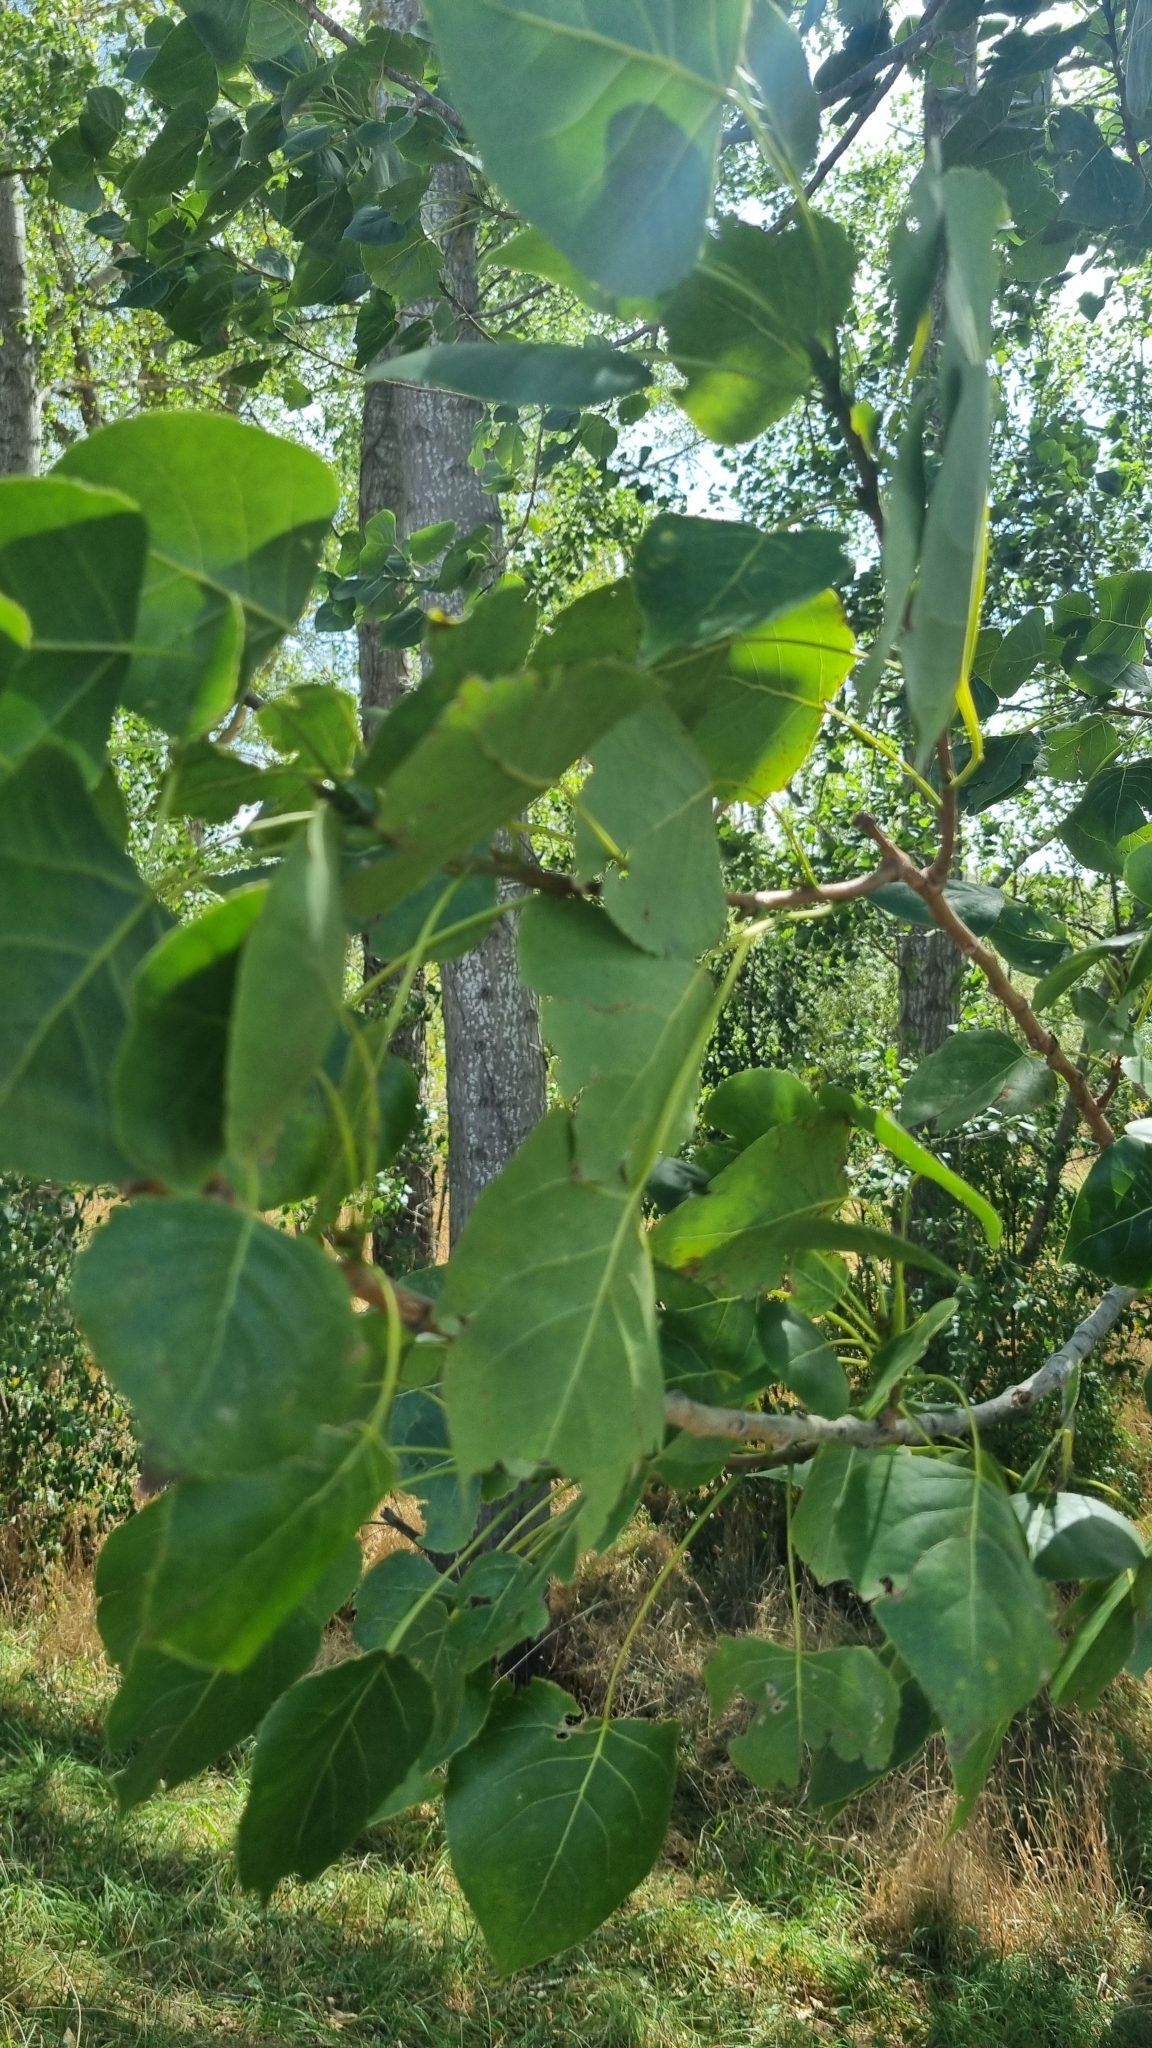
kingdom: Plantae
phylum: Tracheophyta
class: Magnoliopsida
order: Malpighiales
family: Salicaceae
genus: Populus
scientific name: Populus nigra
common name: Black poplar
